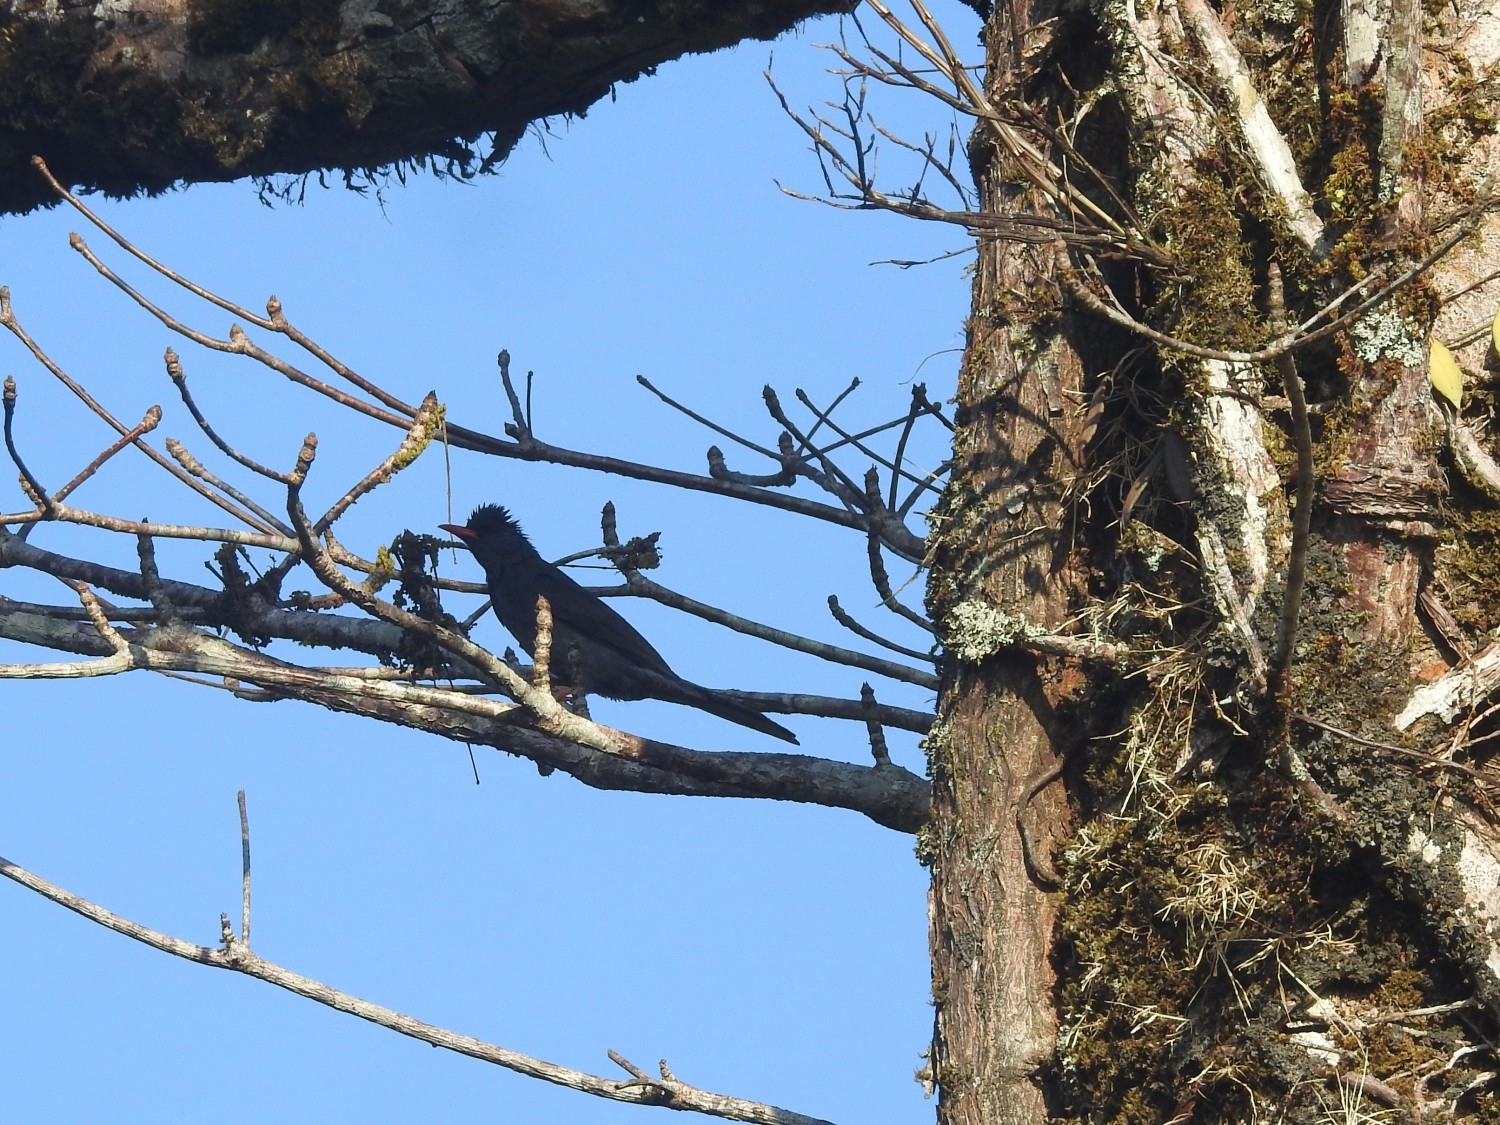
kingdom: Animalia
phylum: Chordata
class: Aves
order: Passeriformes
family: Pycnonotidae
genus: Hypsipetes
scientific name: Hypsipetes ganeesa
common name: Square-tailed bulbul
